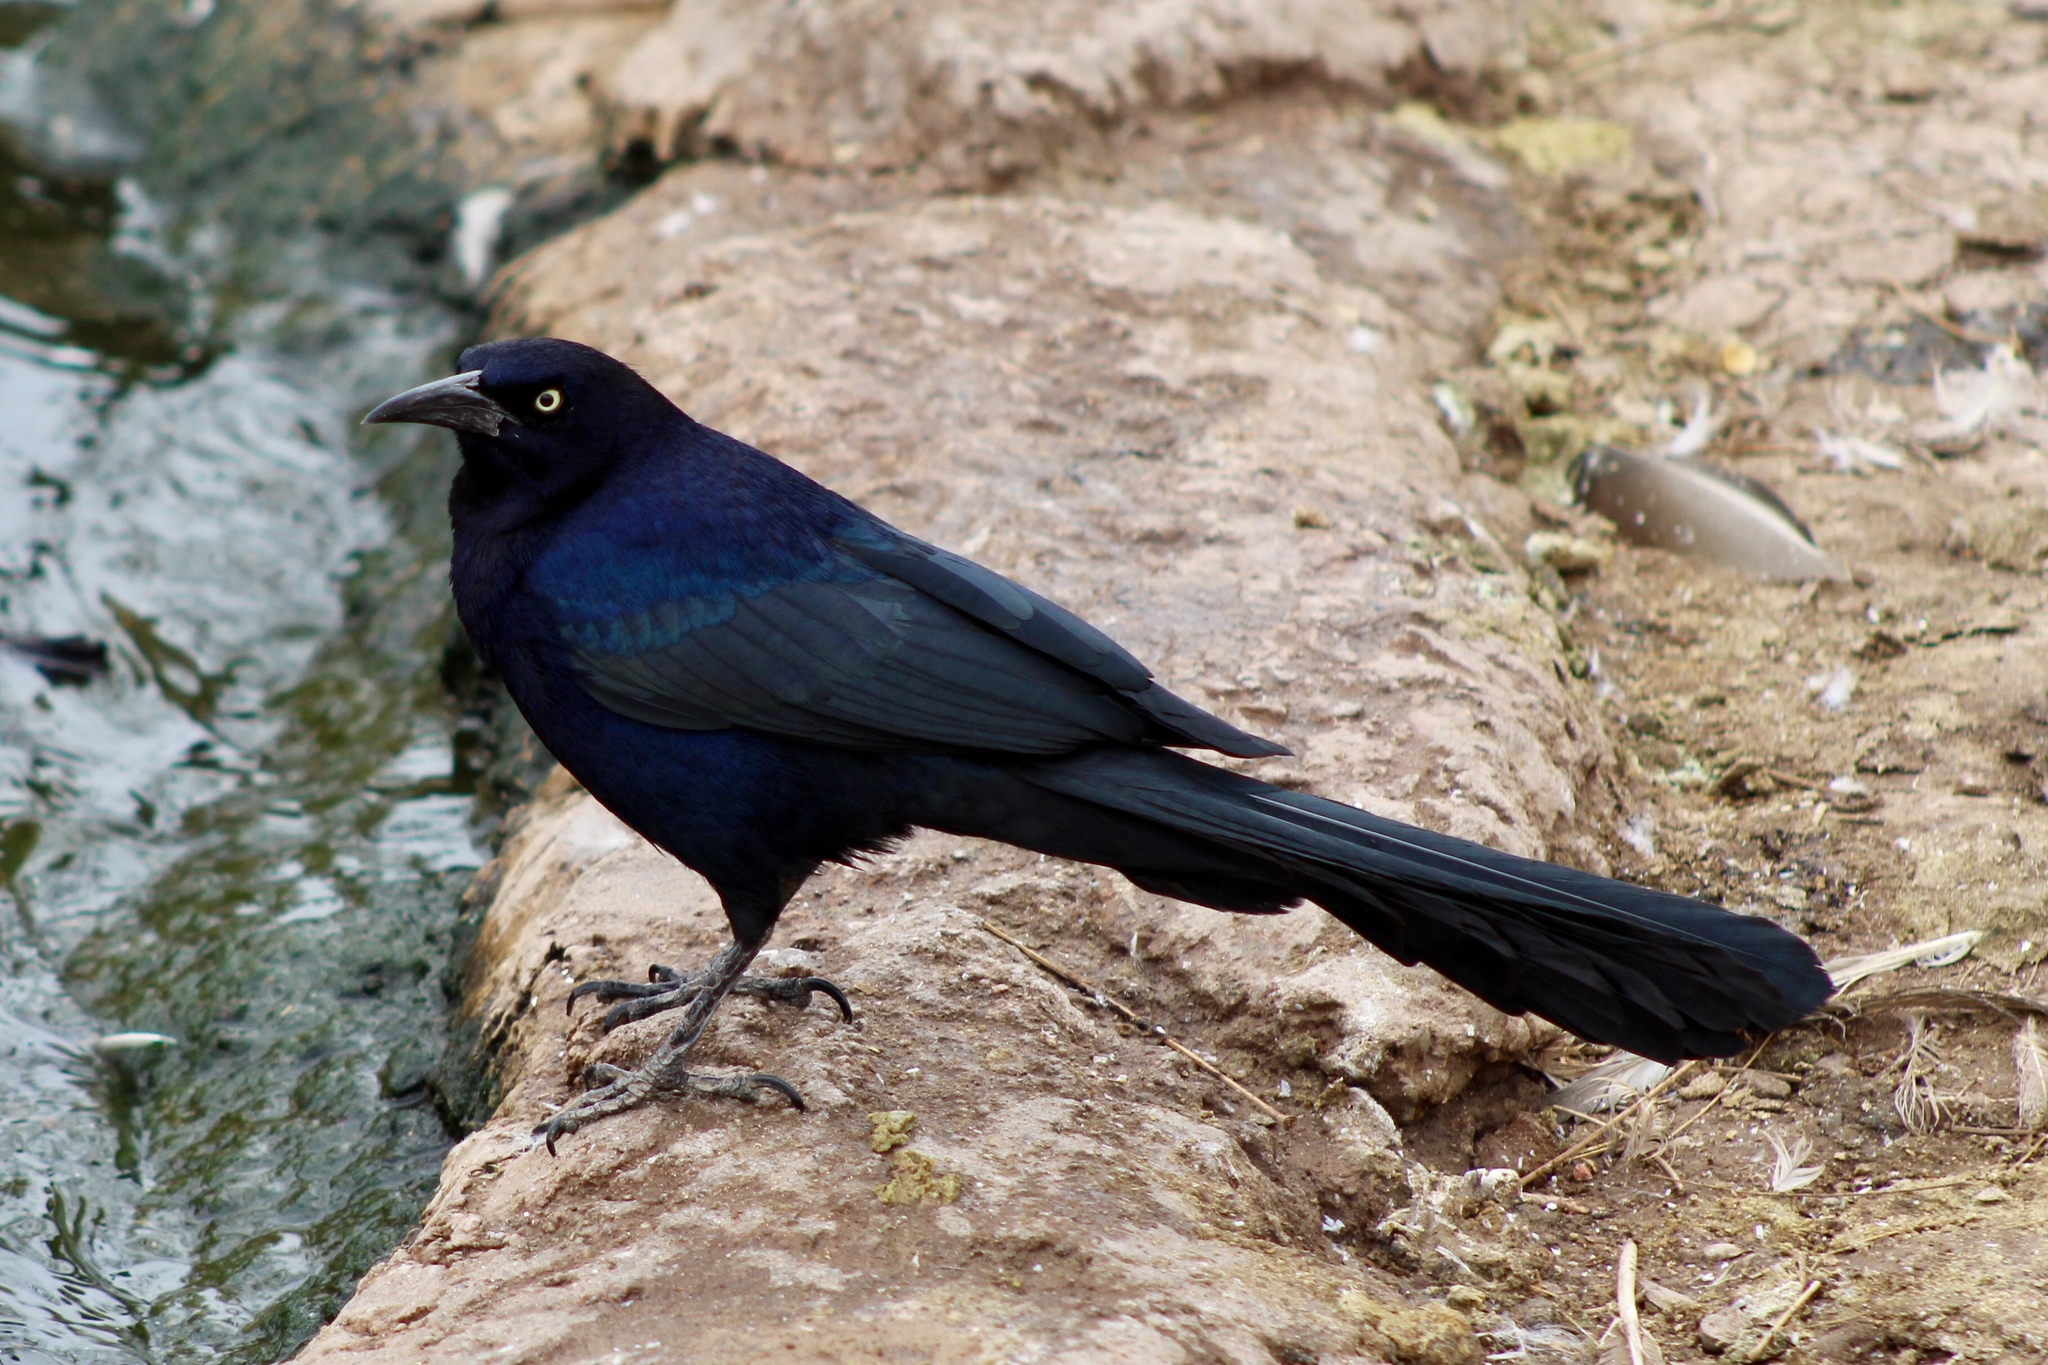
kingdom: Animalia
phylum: Chordata
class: Aves
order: Passeriformes
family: Icteridae
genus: Quiscalus
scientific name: Quiscalus mexicanus
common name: Great-tailed grackle
